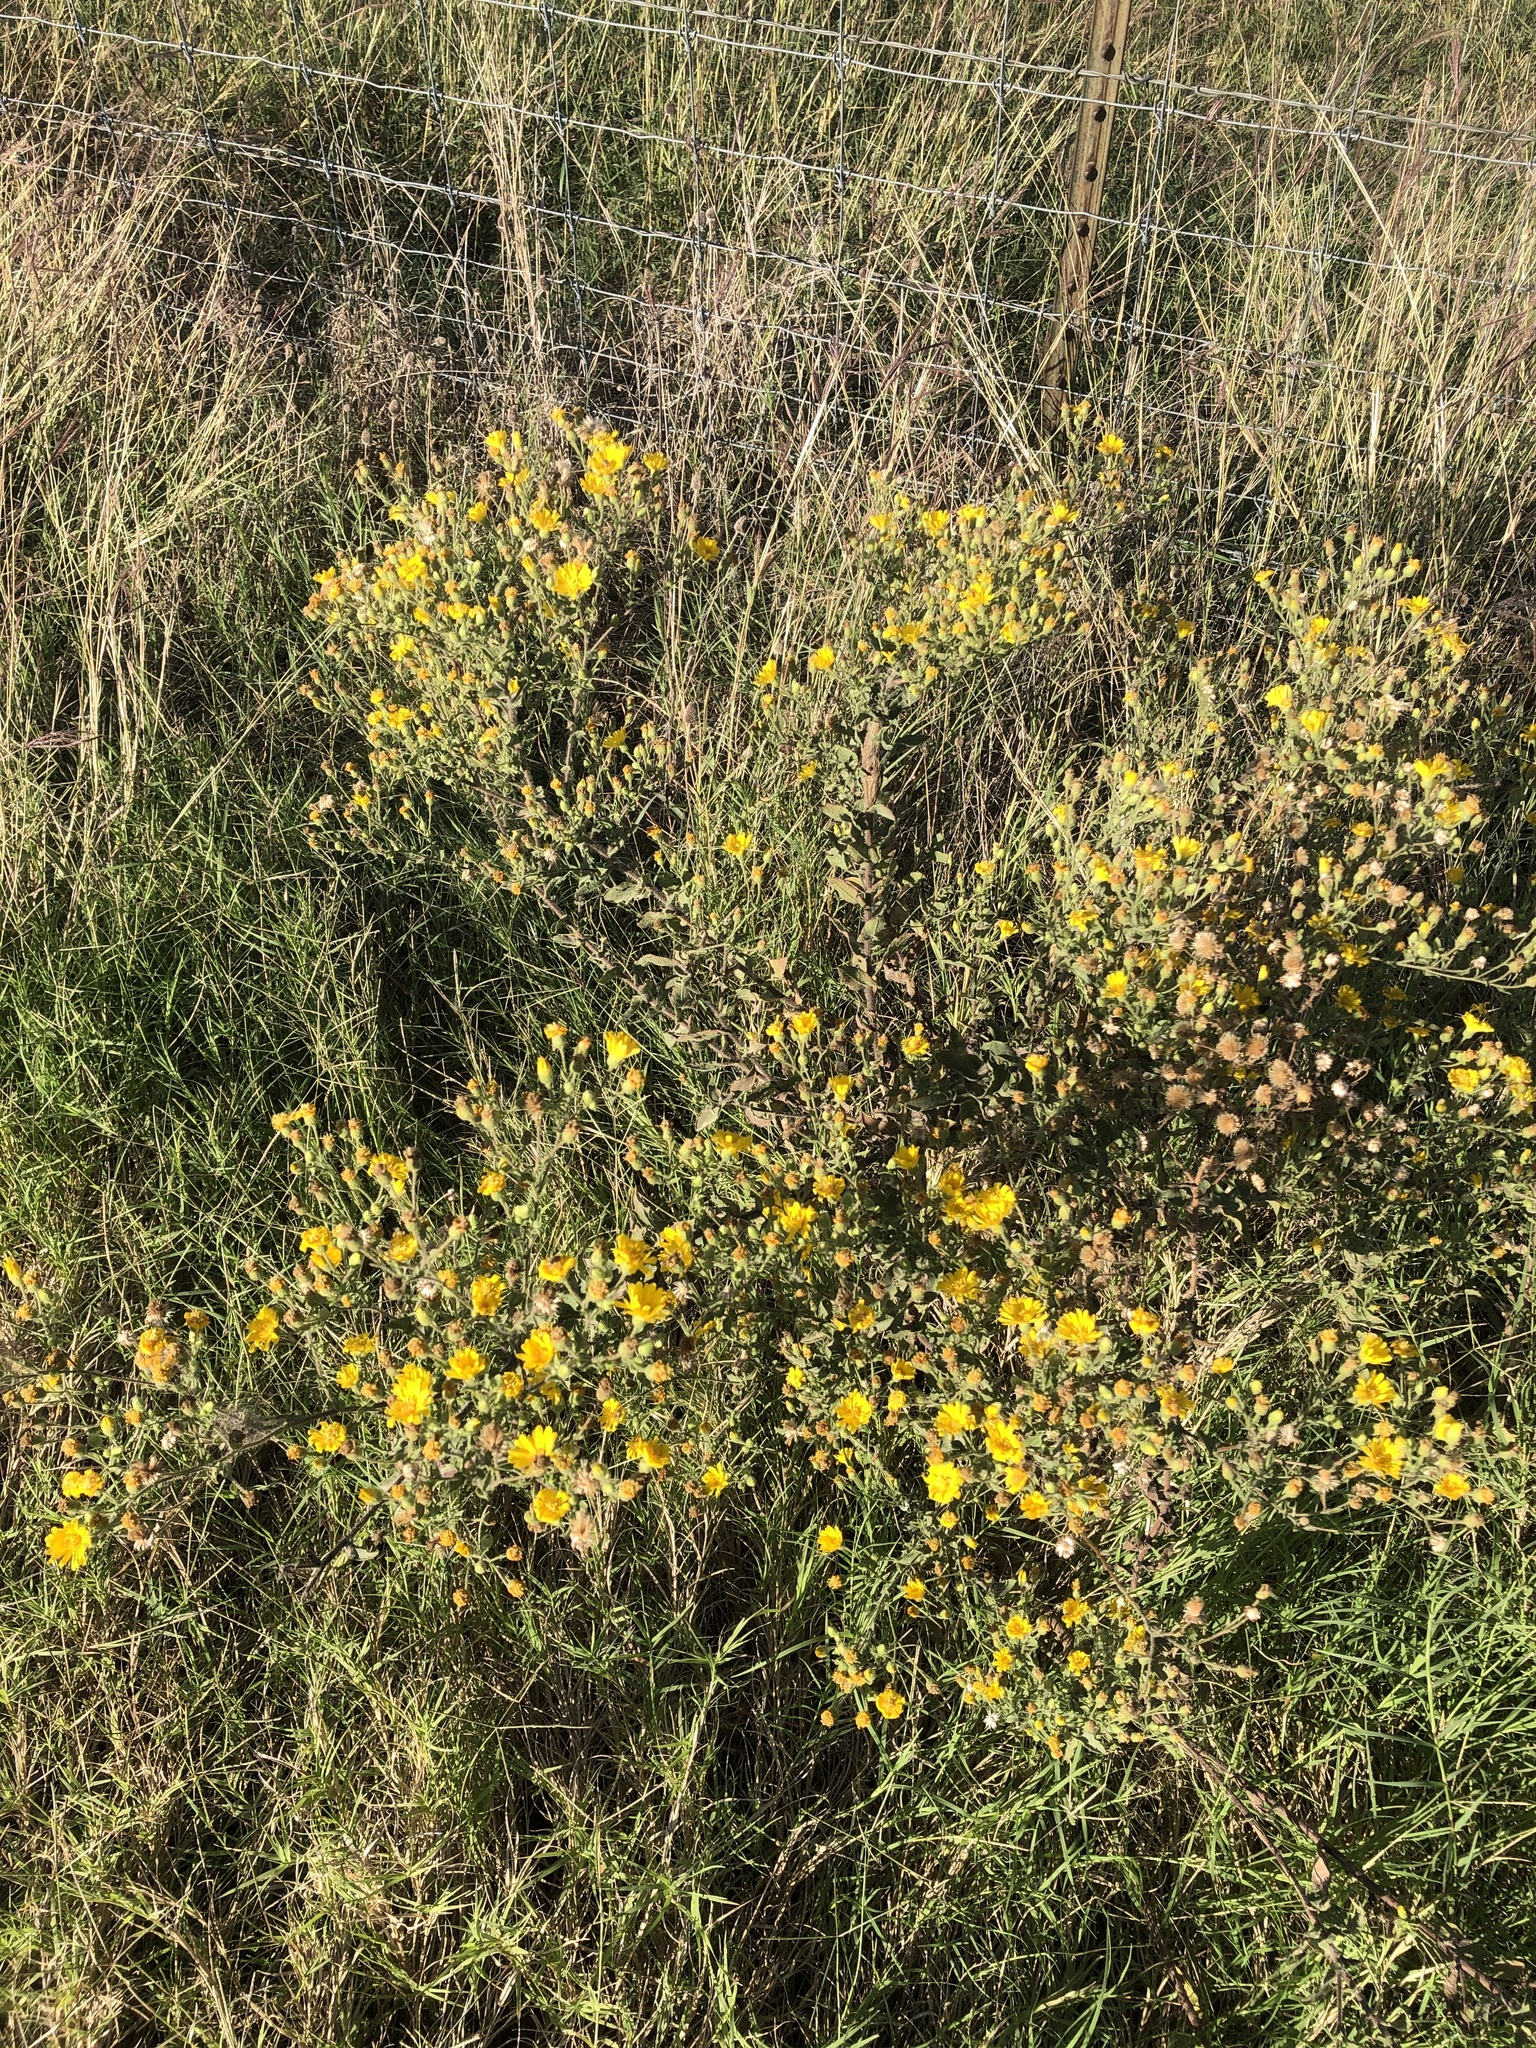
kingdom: Plantae
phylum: Tracheophyta
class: Magnoliopsida
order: Asterales
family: Asteraceae
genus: Heterotheca
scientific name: Heterotheca subaxillaris
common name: Camphorweed
